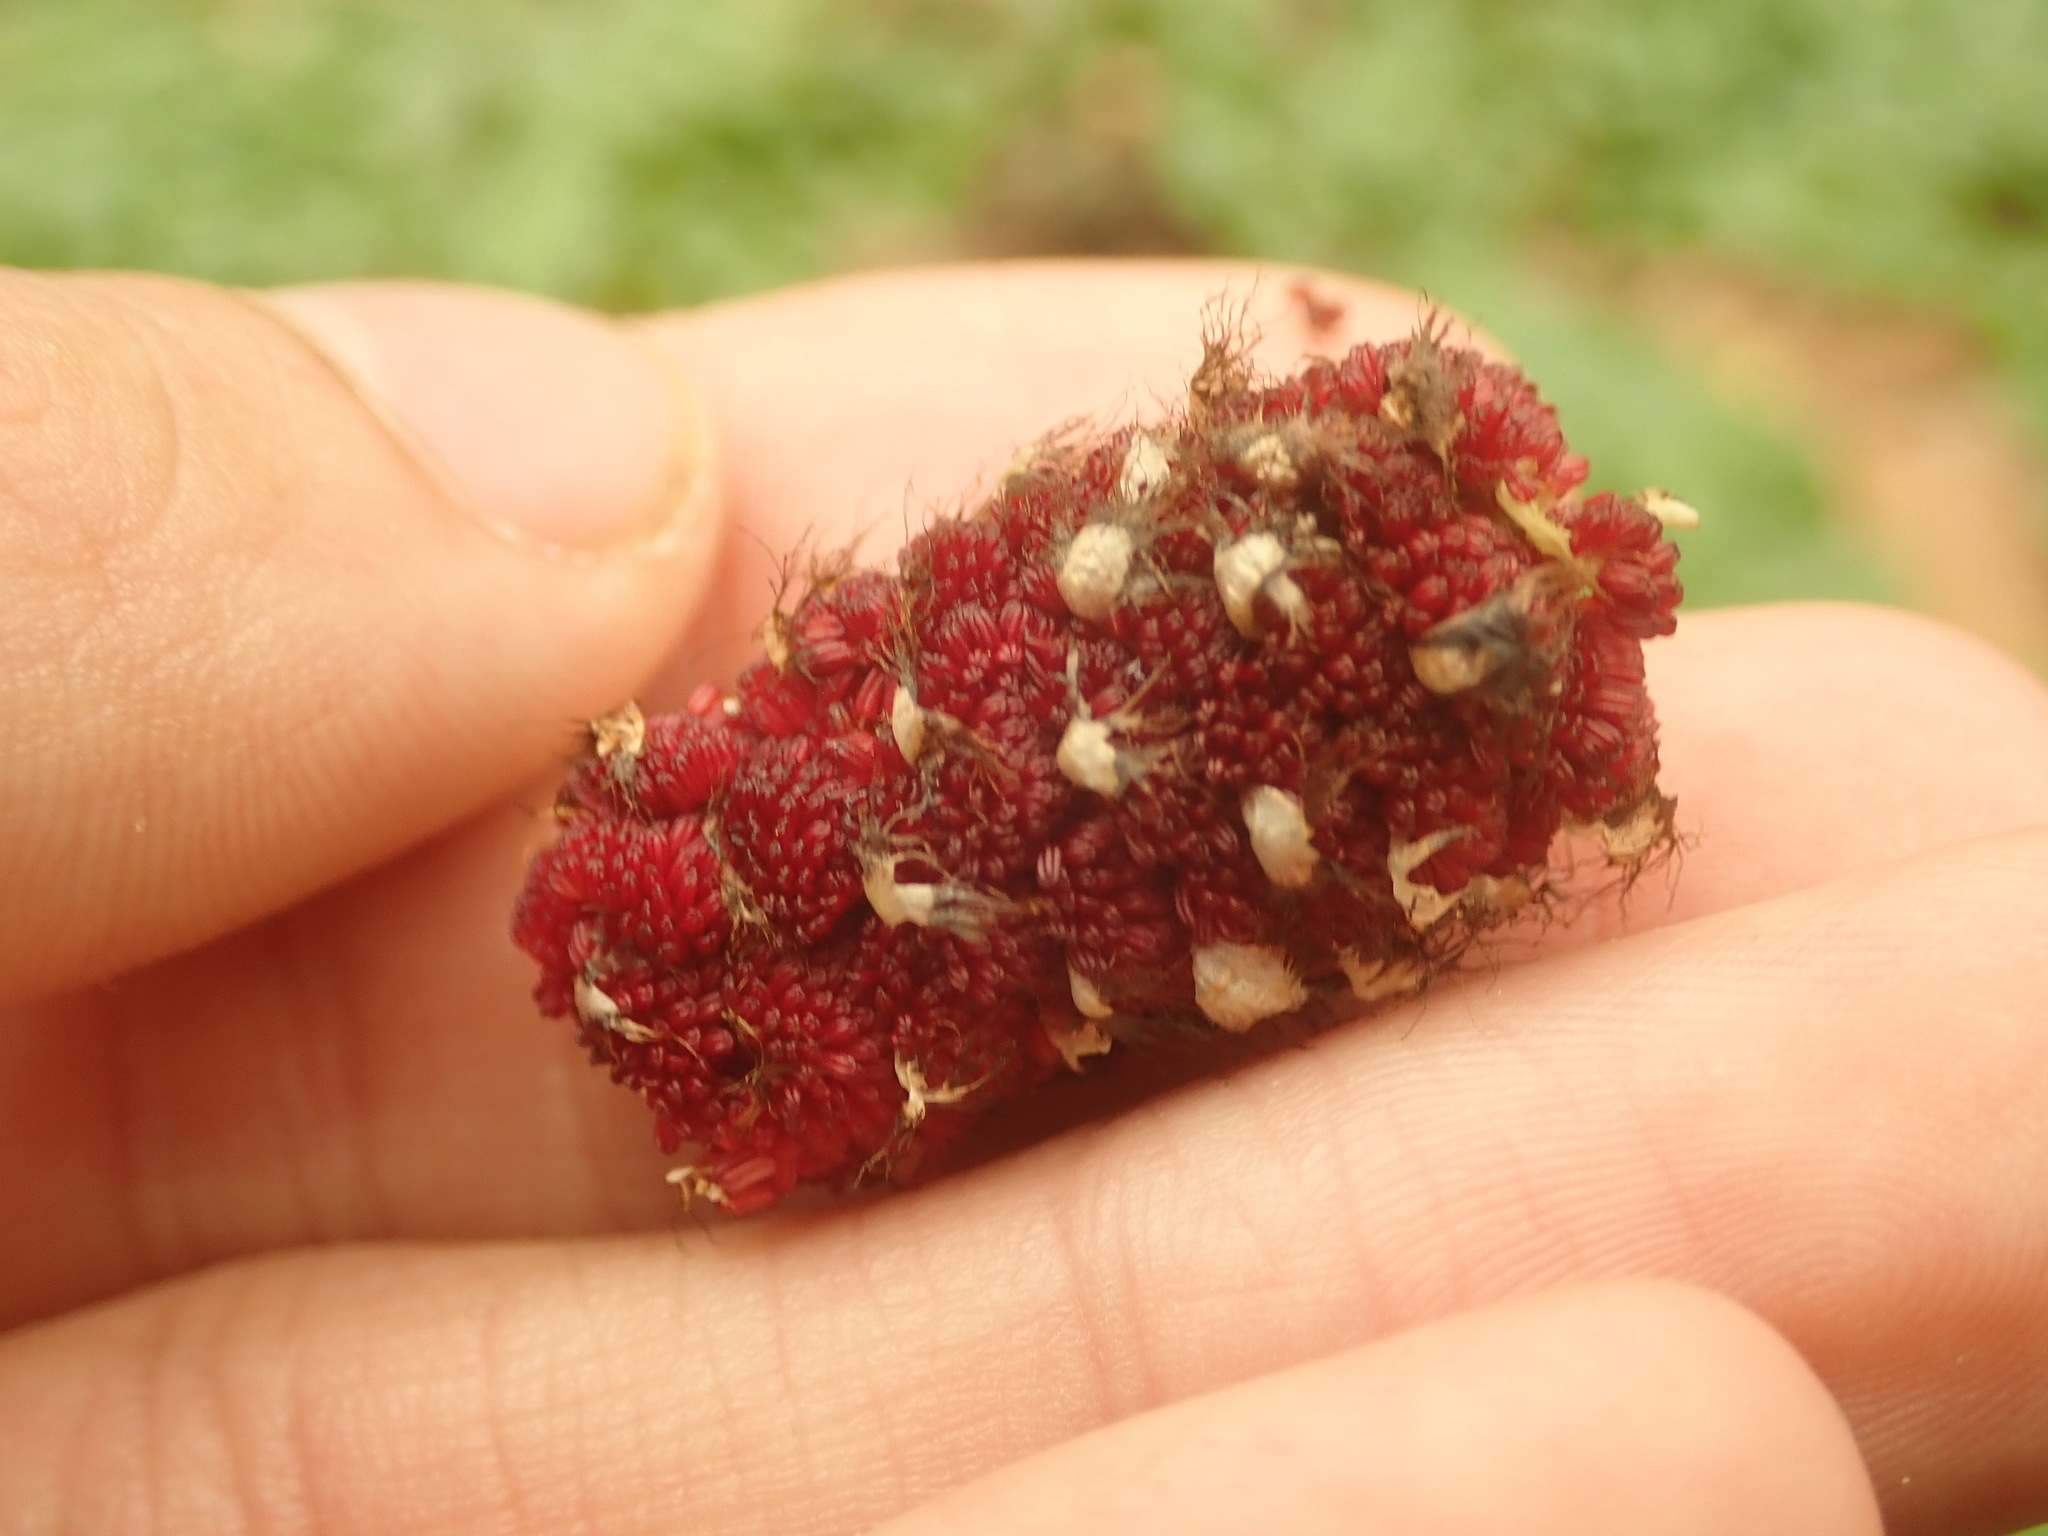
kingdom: Plantae
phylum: Tracheophyta
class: Magnoliopsida
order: Malpighiales
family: Salicaceae
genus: Populus
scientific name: Populus deltoides
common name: Eastern cottonwood
